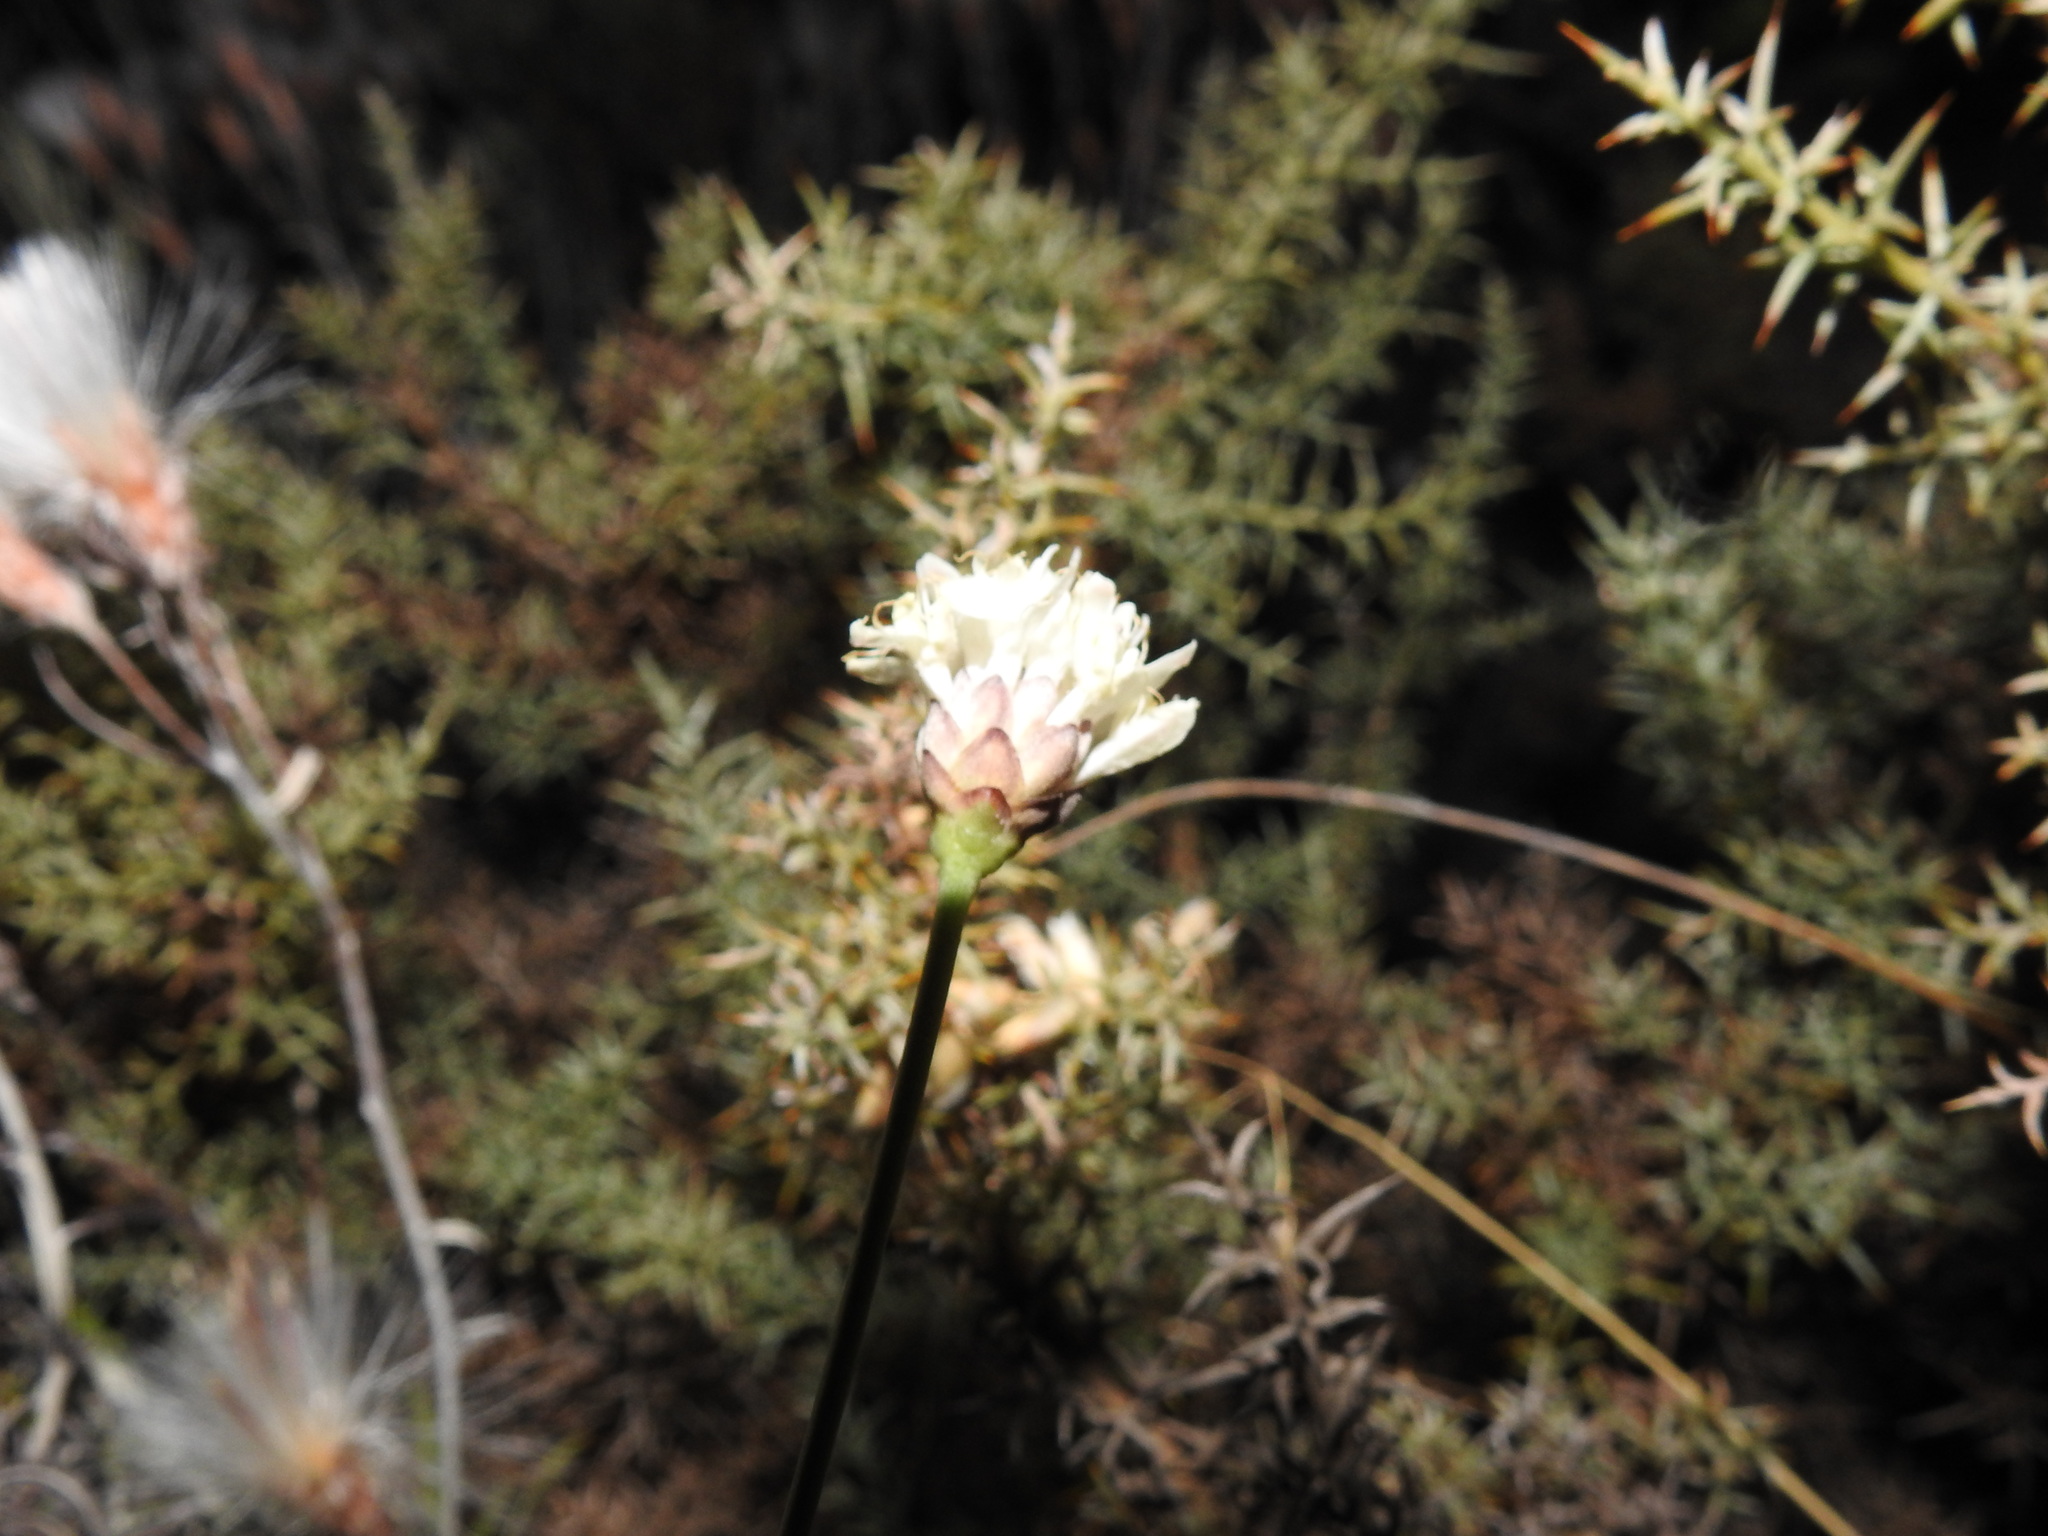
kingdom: Plantae
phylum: Tracheophyta
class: Magnoliopsida
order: Dipsacales
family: Caprifoliaceae
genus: Cephalaria
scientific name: Cephalaria leucantha
